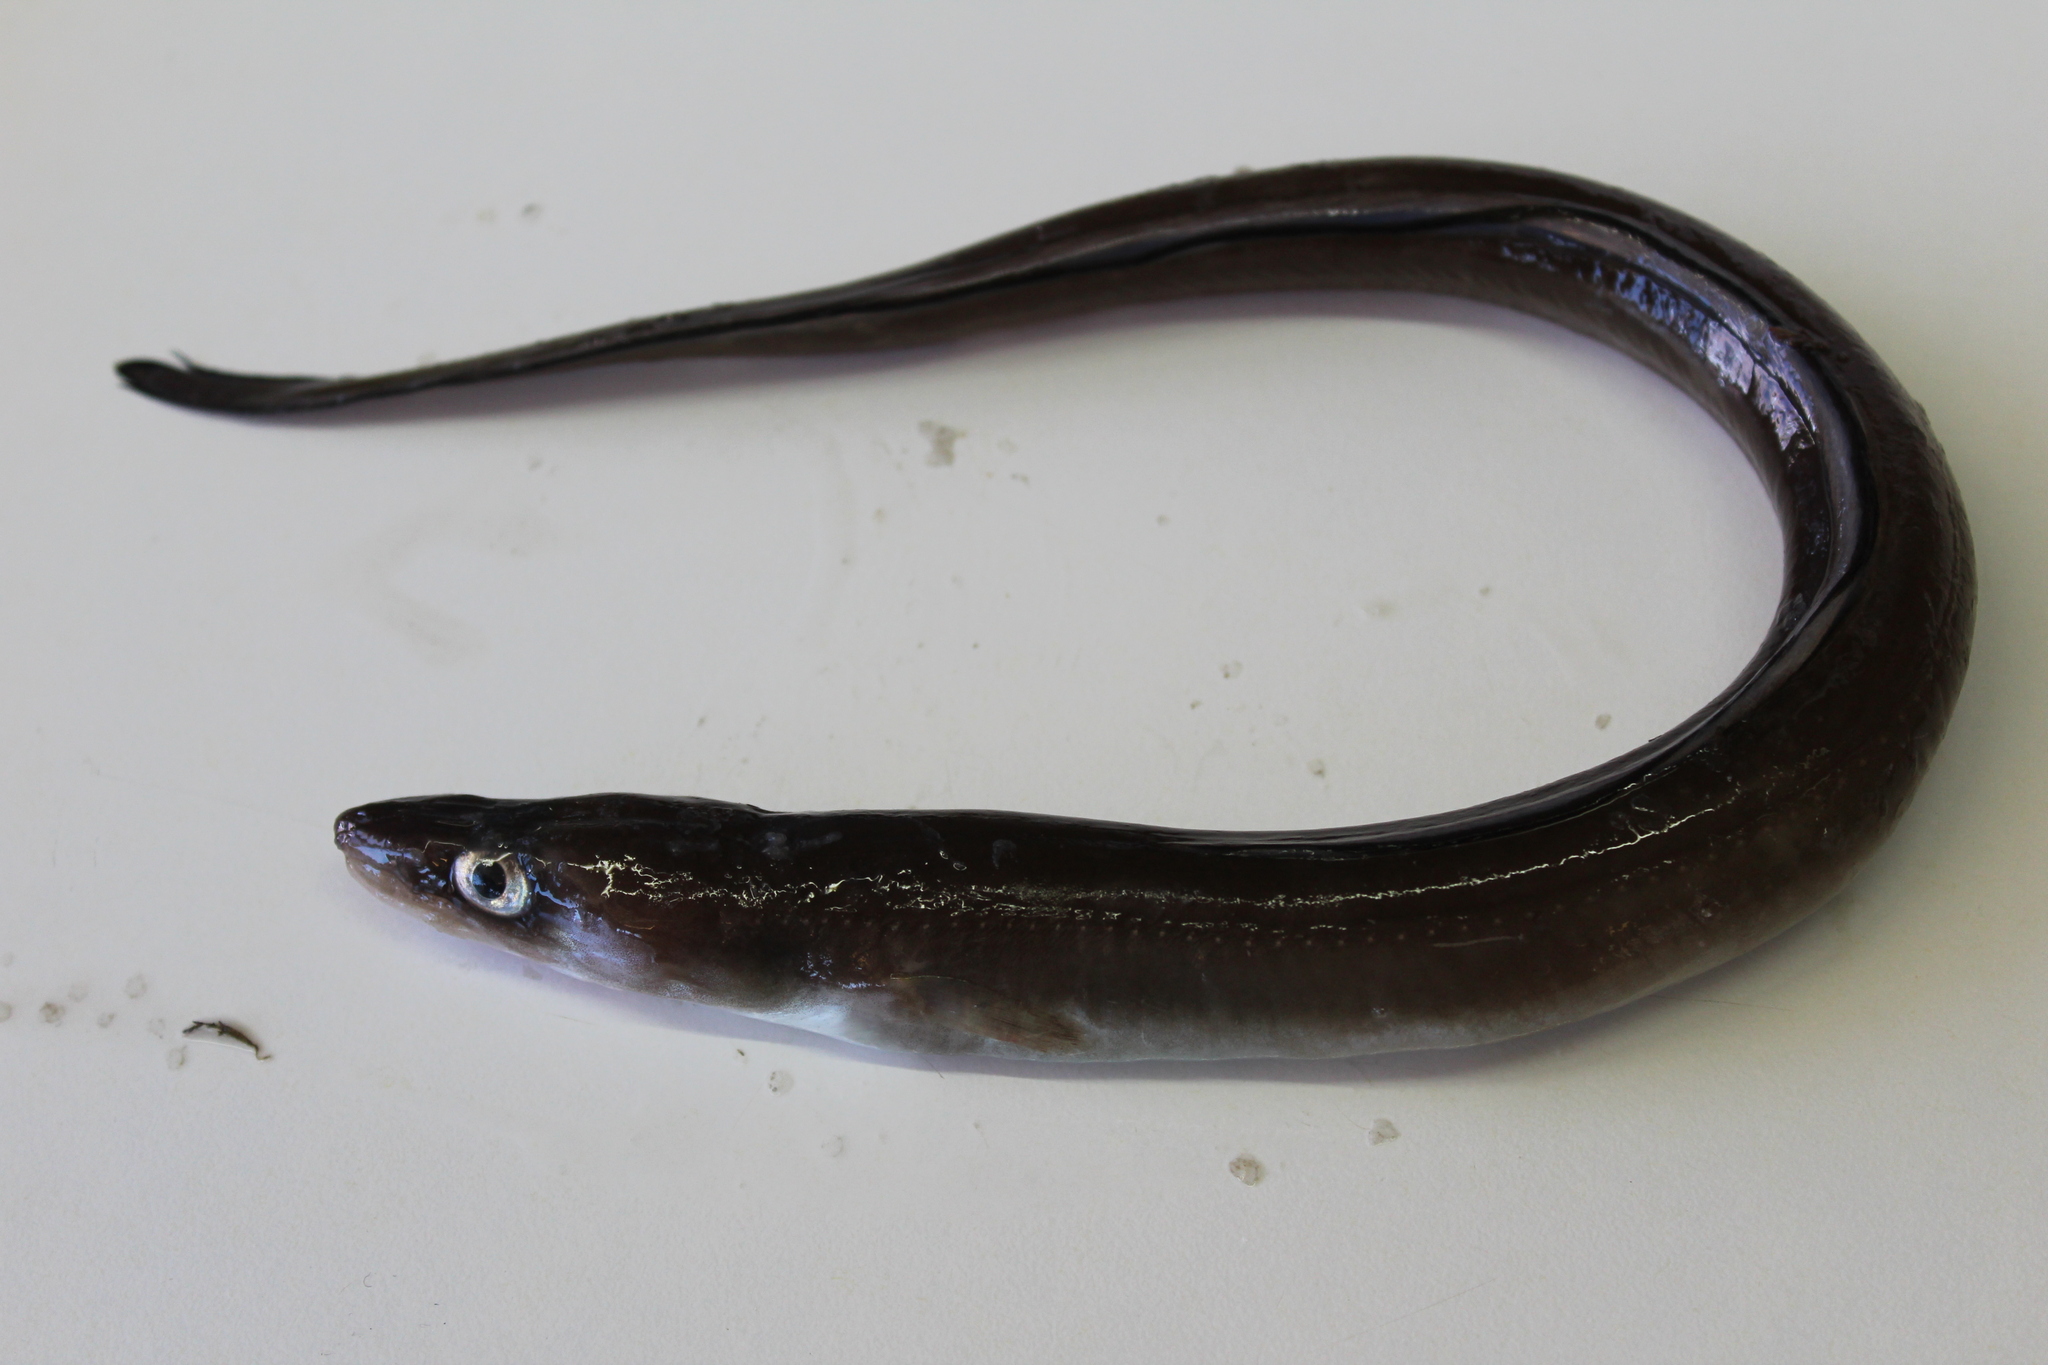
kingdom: Animalia
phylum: Chordata
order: Anguilliformes
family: Congridae
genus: Conger
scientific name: Conger conger
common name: Conger eel
